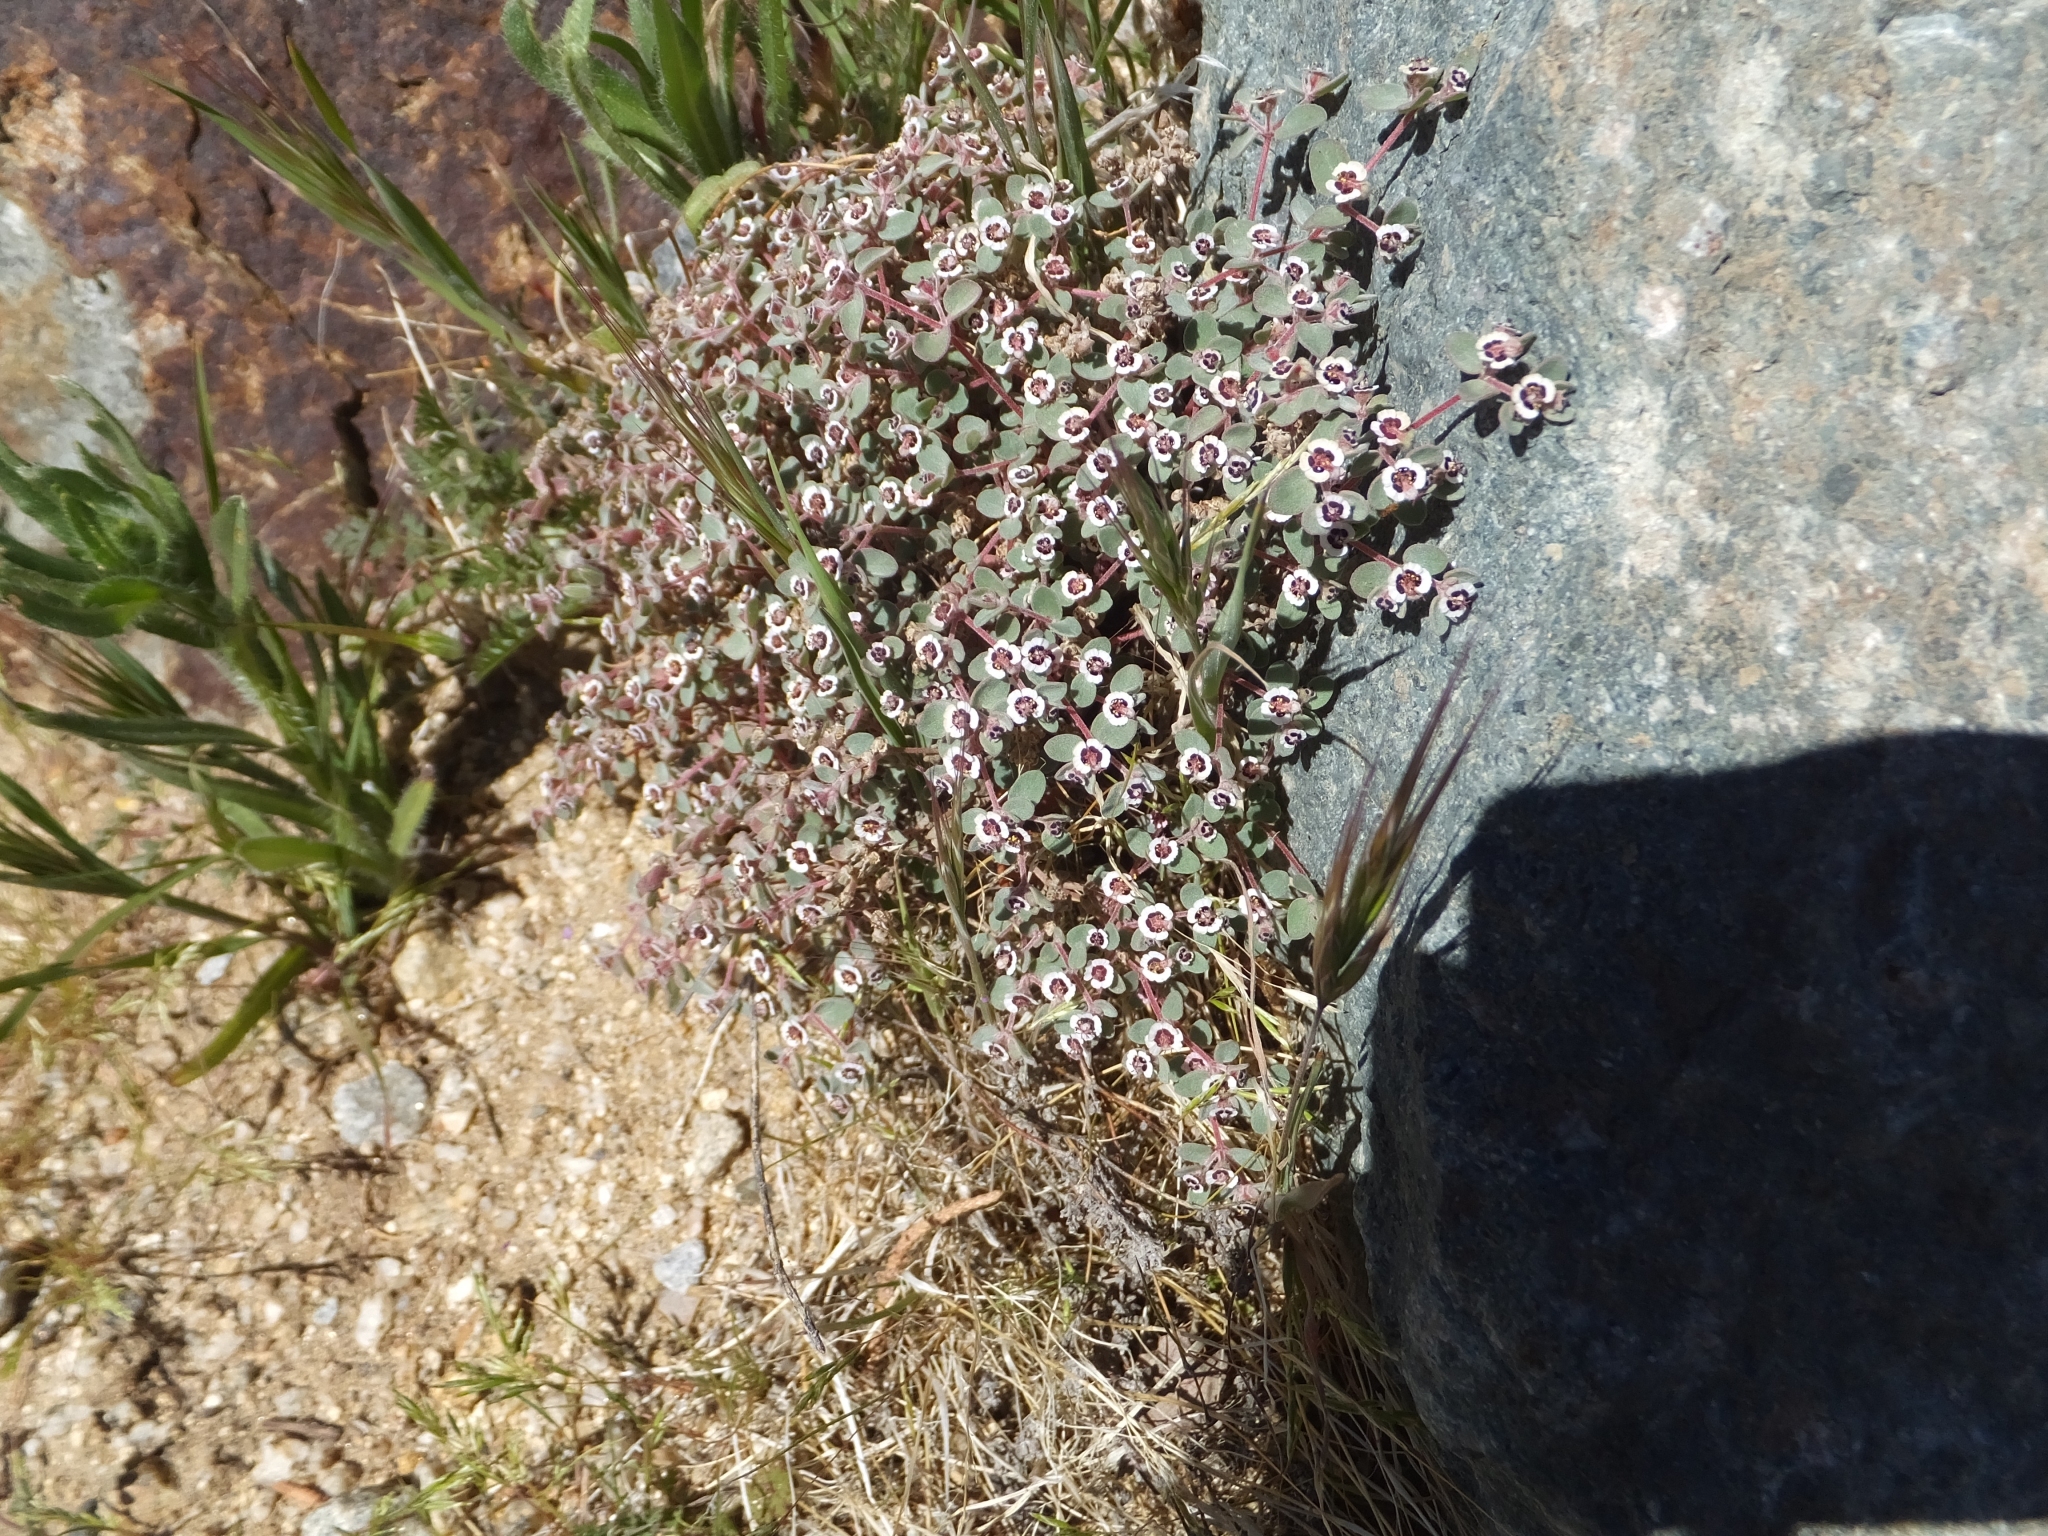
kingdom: Plantae
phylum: Tracheophyta
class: Magnoliopsida
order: Malpighiales
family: Euphorbiaceae
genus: Euphorbia
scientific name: Euphorbia melanadenia
